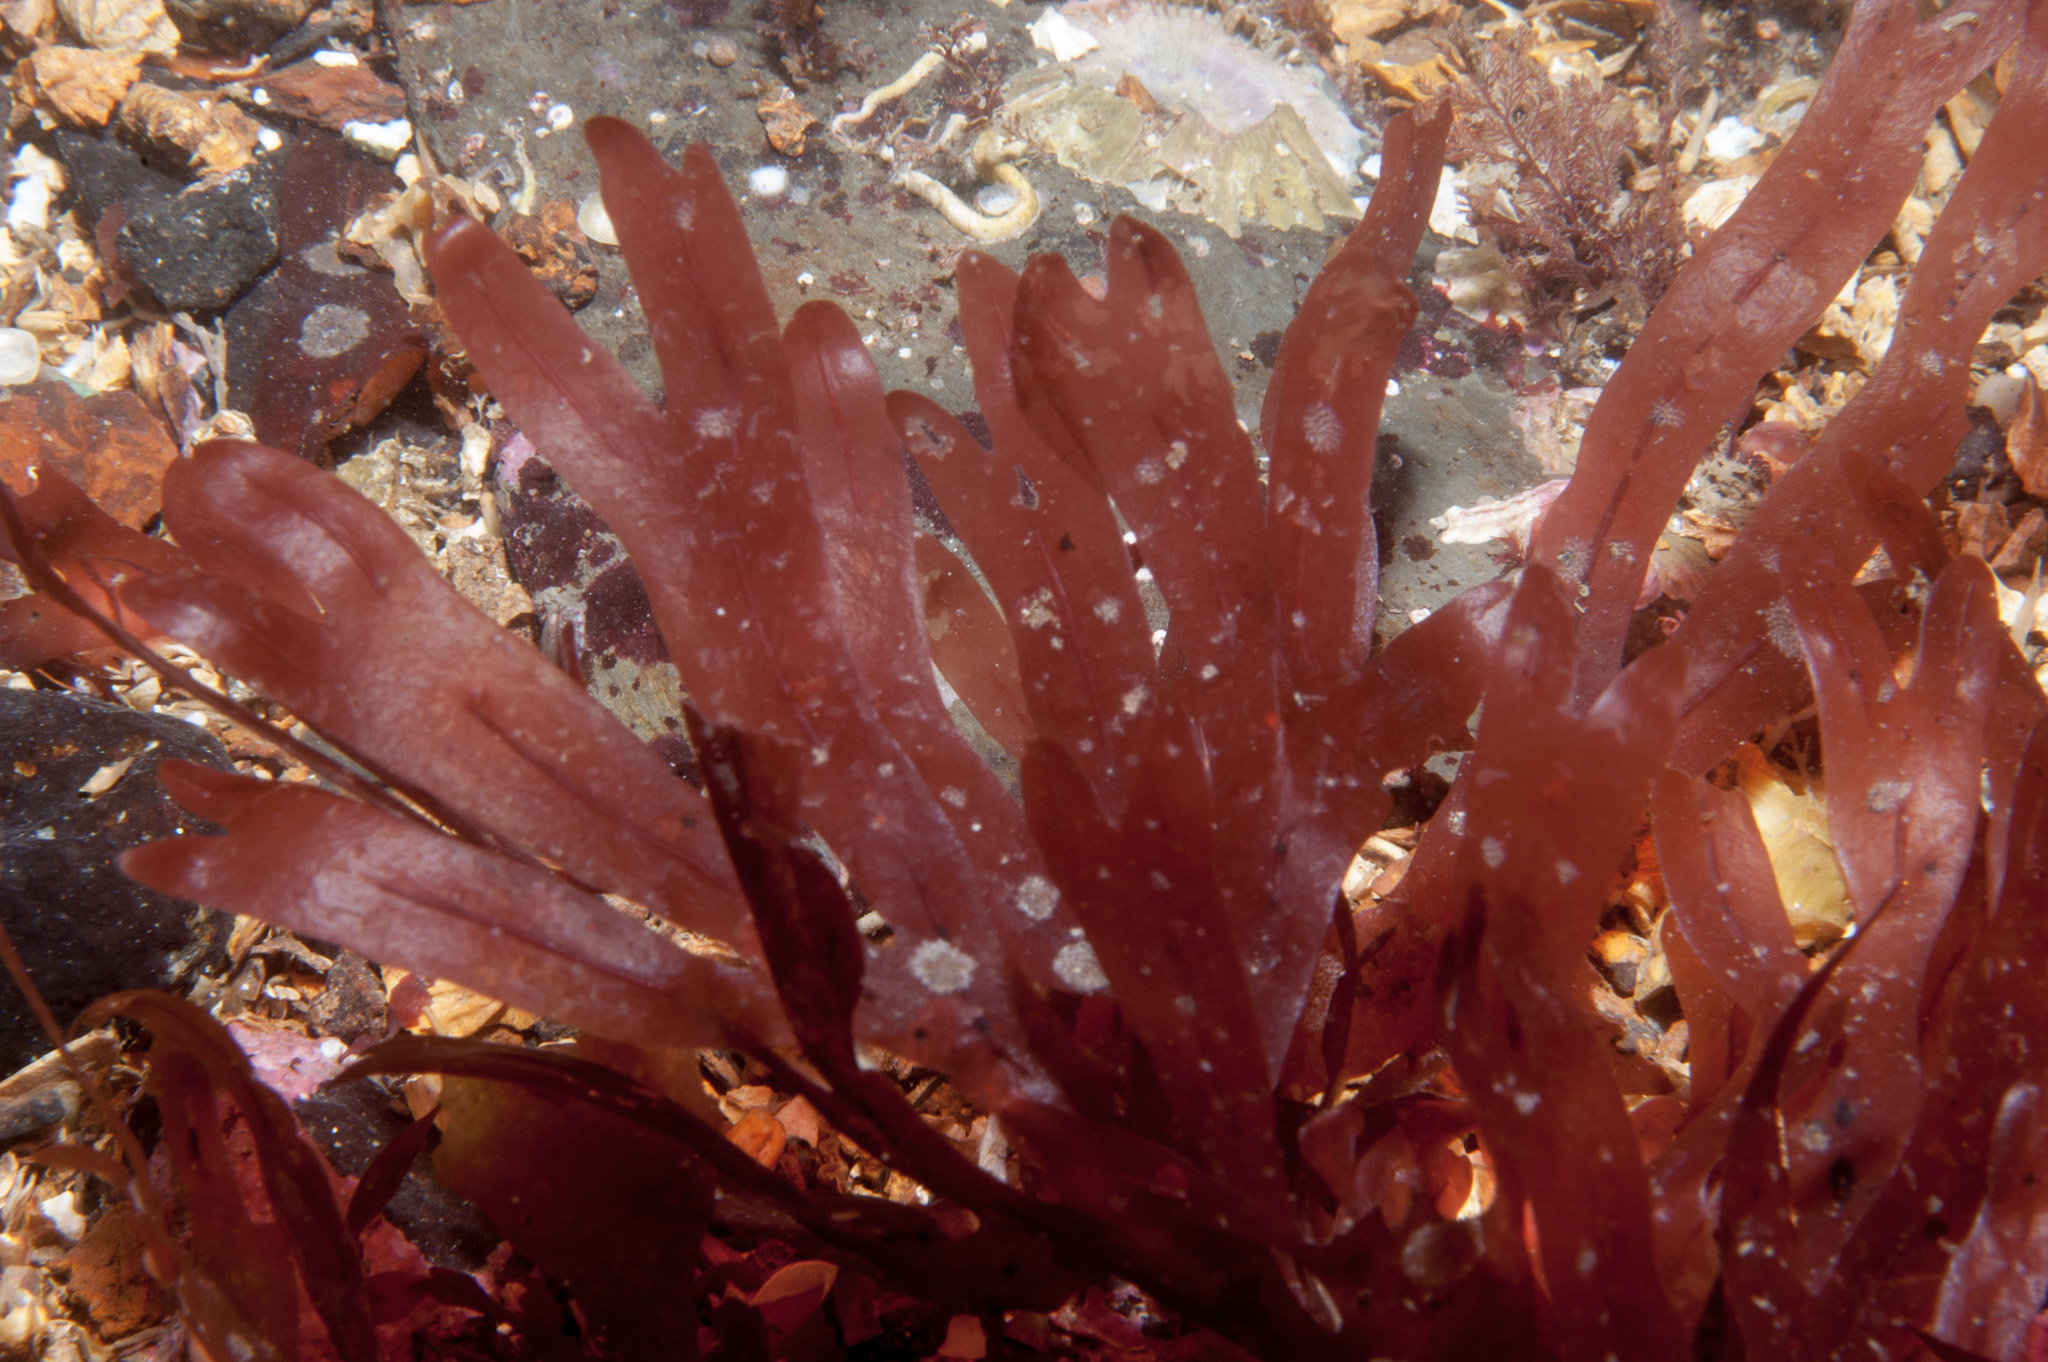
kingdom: Plantae
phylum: Rhodophyta
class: Florideophyceae
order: Gigartinales
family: Phyllophoraceae
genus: Stenogramma
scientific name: Stenogramma interruptum
